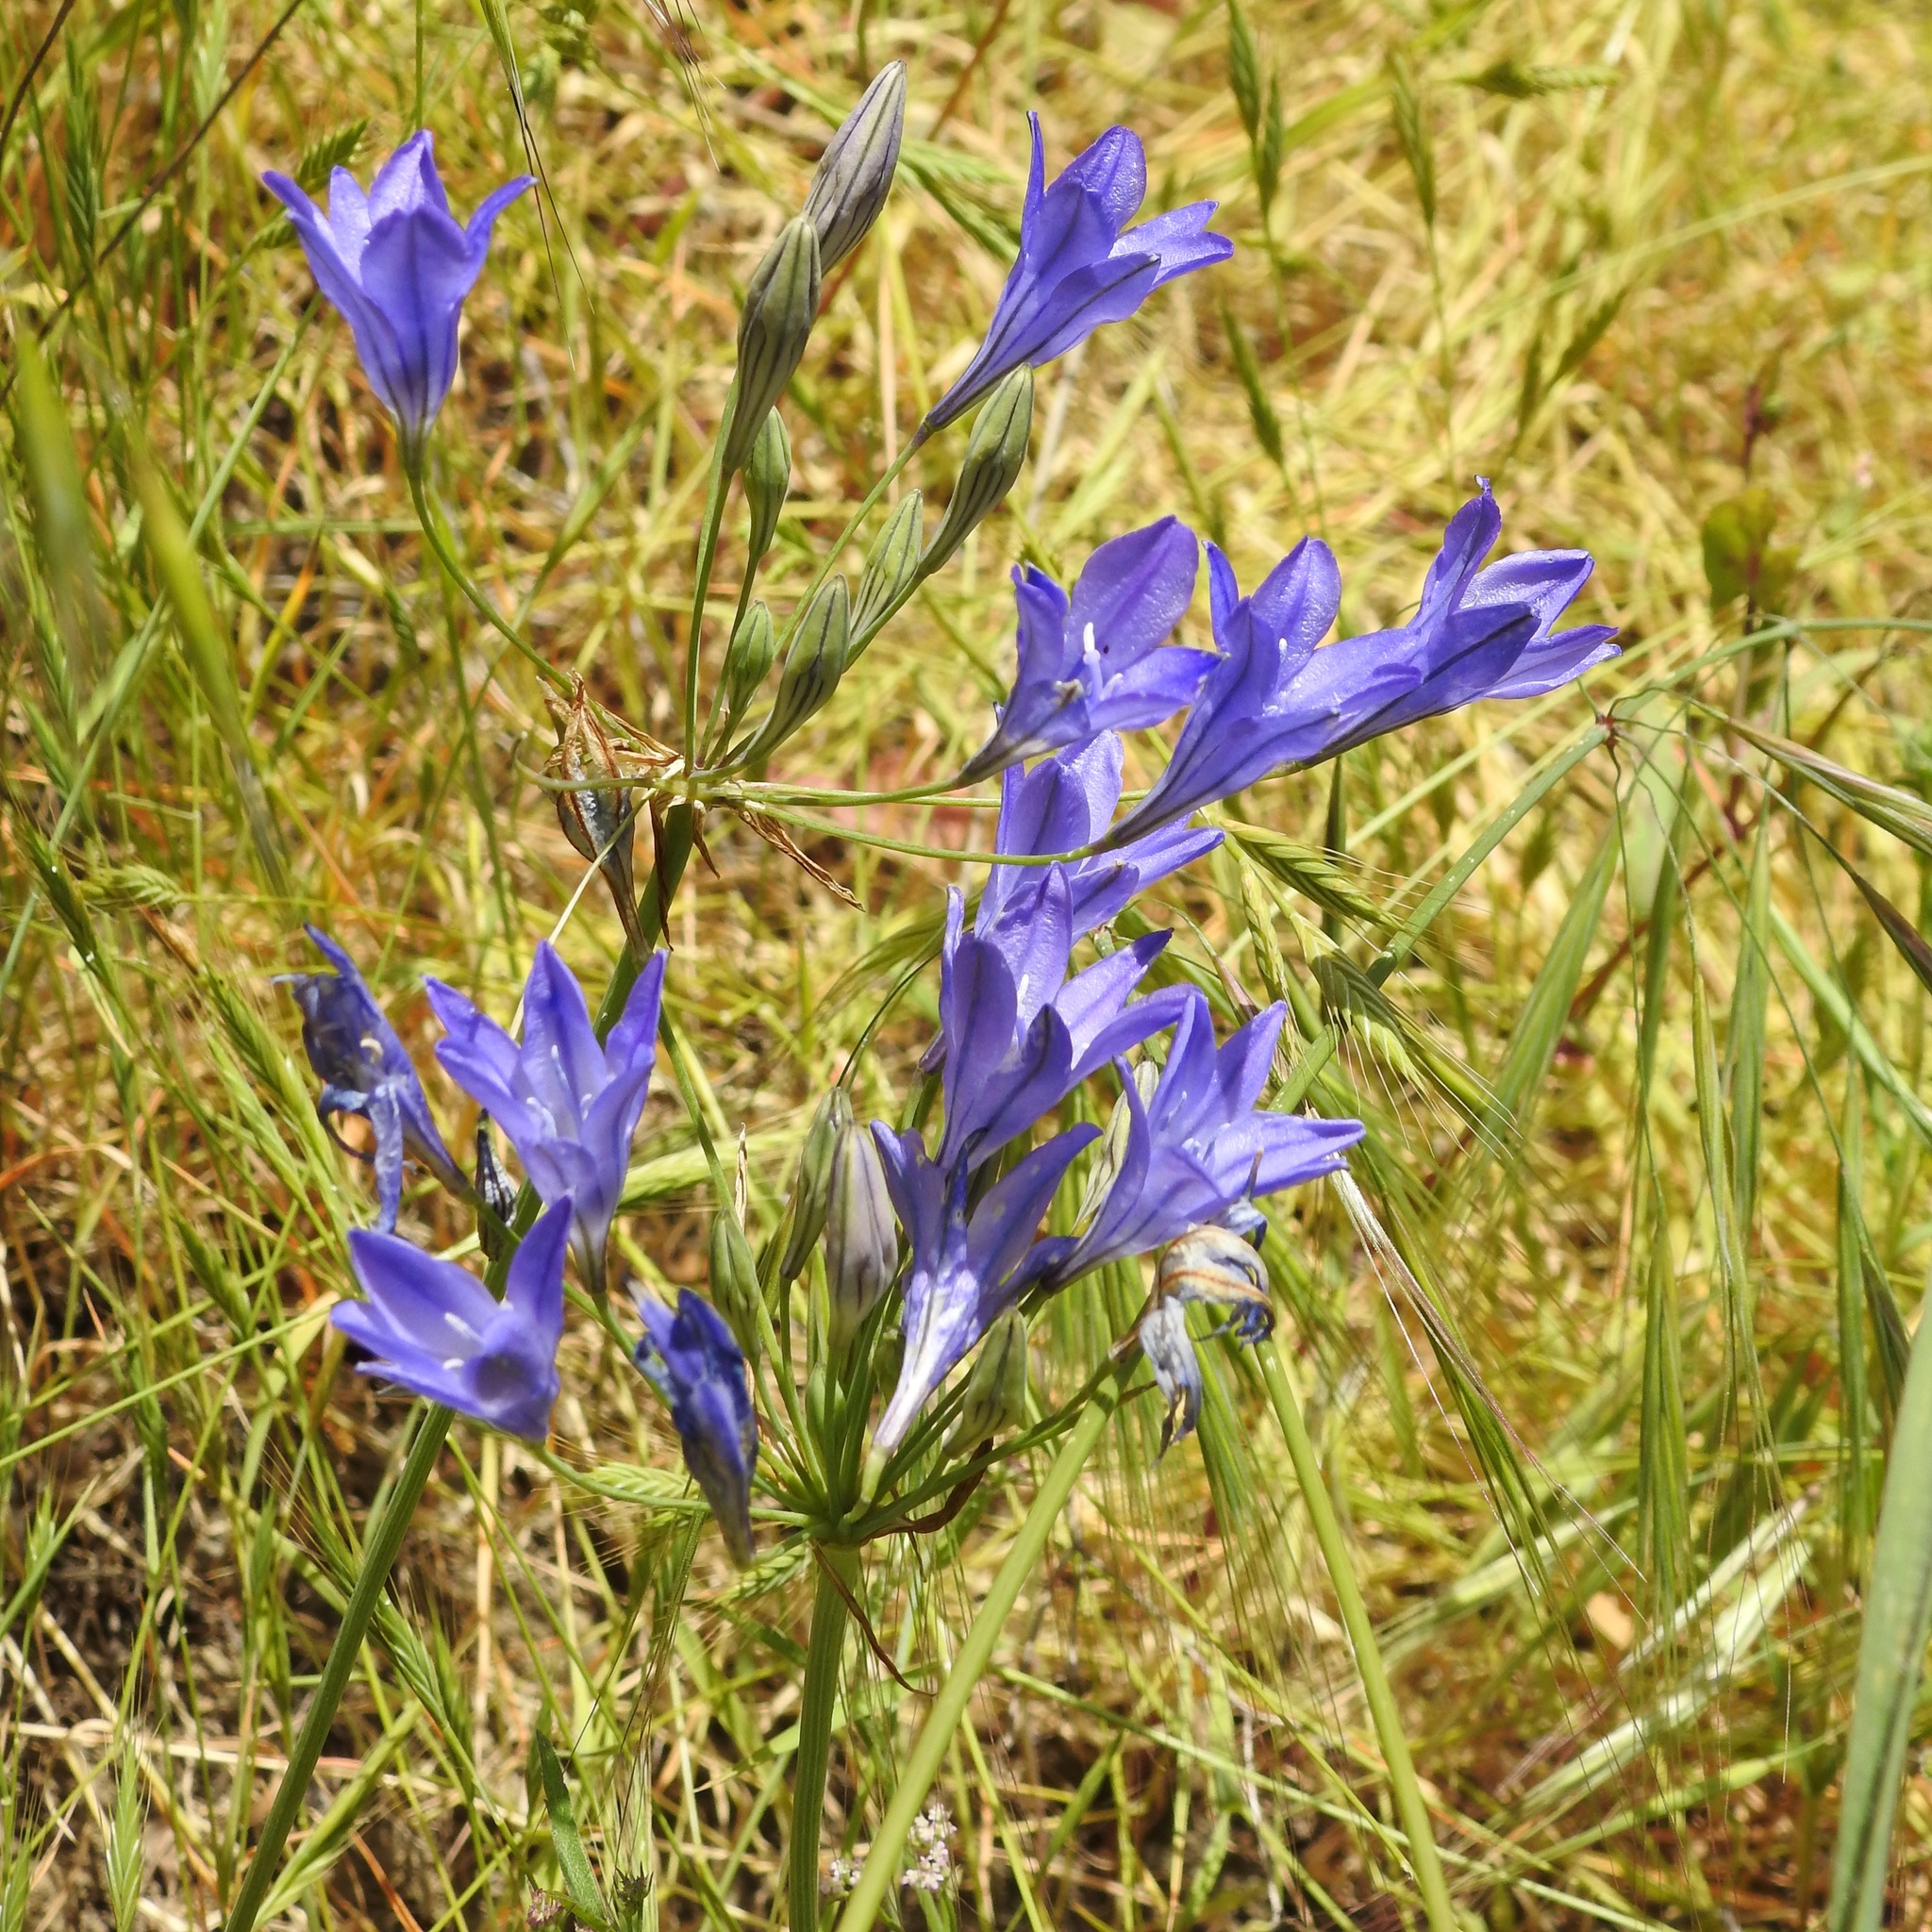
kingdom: Plantae
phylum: Tracheophyta
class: Liliopsida
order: Asparagales
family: Asparagaceae
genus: Triteleia
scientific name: Triteleia laxa
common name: Triplet-lily
